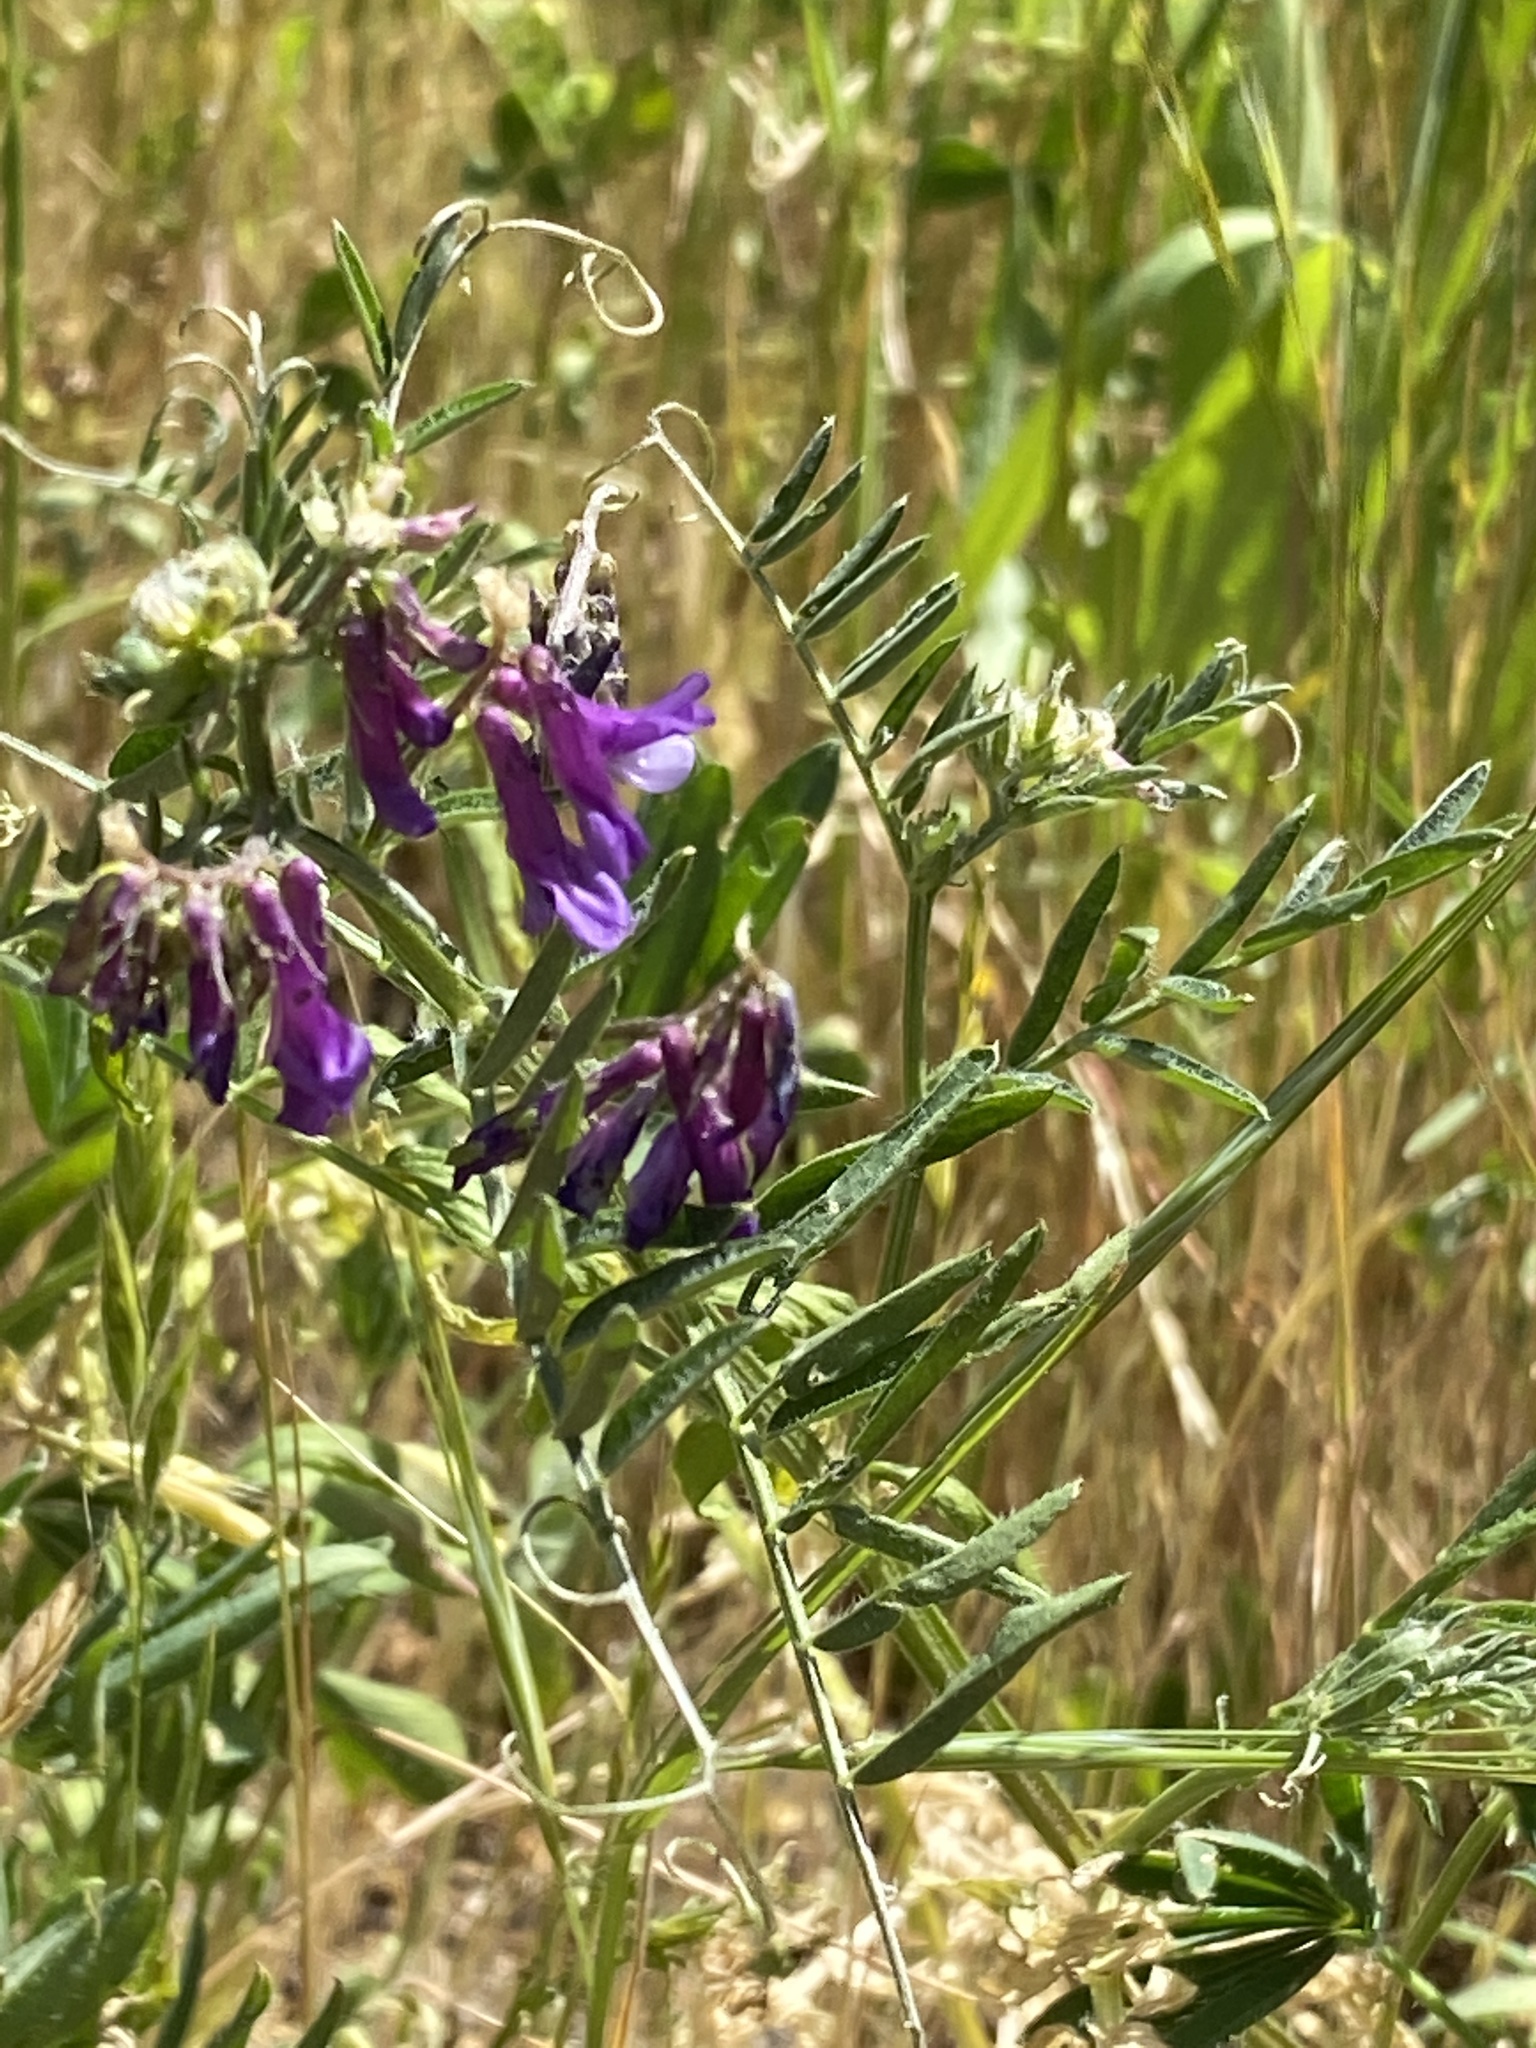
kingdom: Plantae
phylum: Tracheophyta
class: Magnoliopsida
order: Fabales
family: Fabaceae
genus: Vicia
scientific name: Vicia villosa
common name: Fodder vetch
